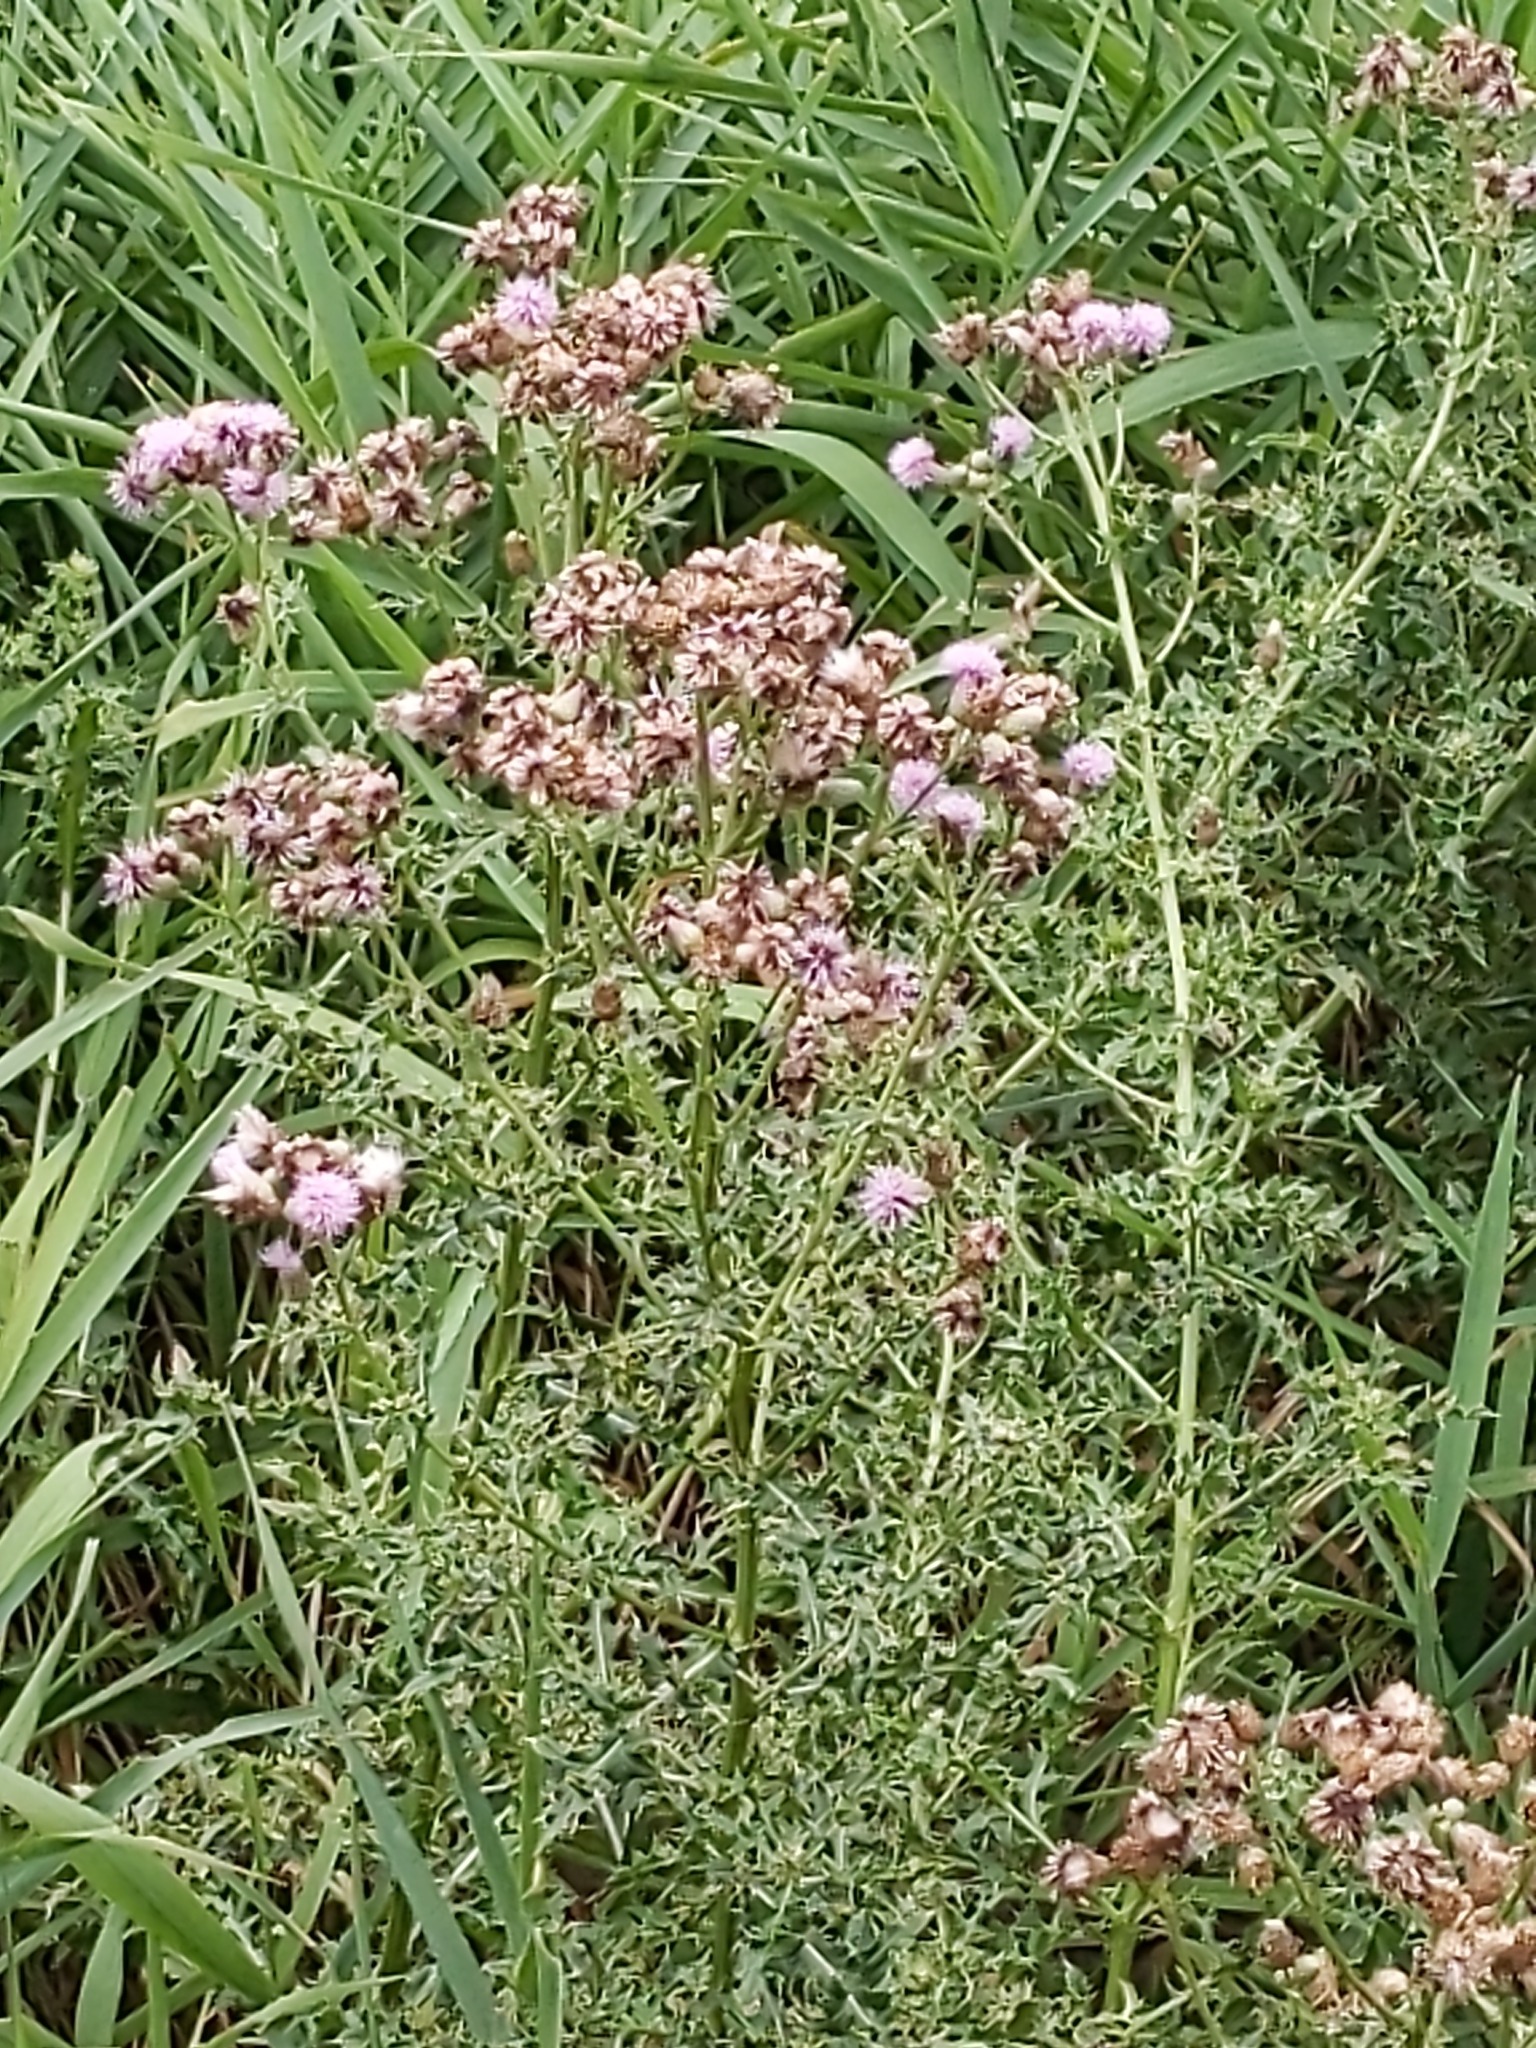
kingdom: Plantae
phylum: Tracheophyta
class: Magnoliopsida
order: Asterales
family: Asteraceae
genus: Cirsium
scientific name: Cirsium arvense
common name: Creeping thistle
